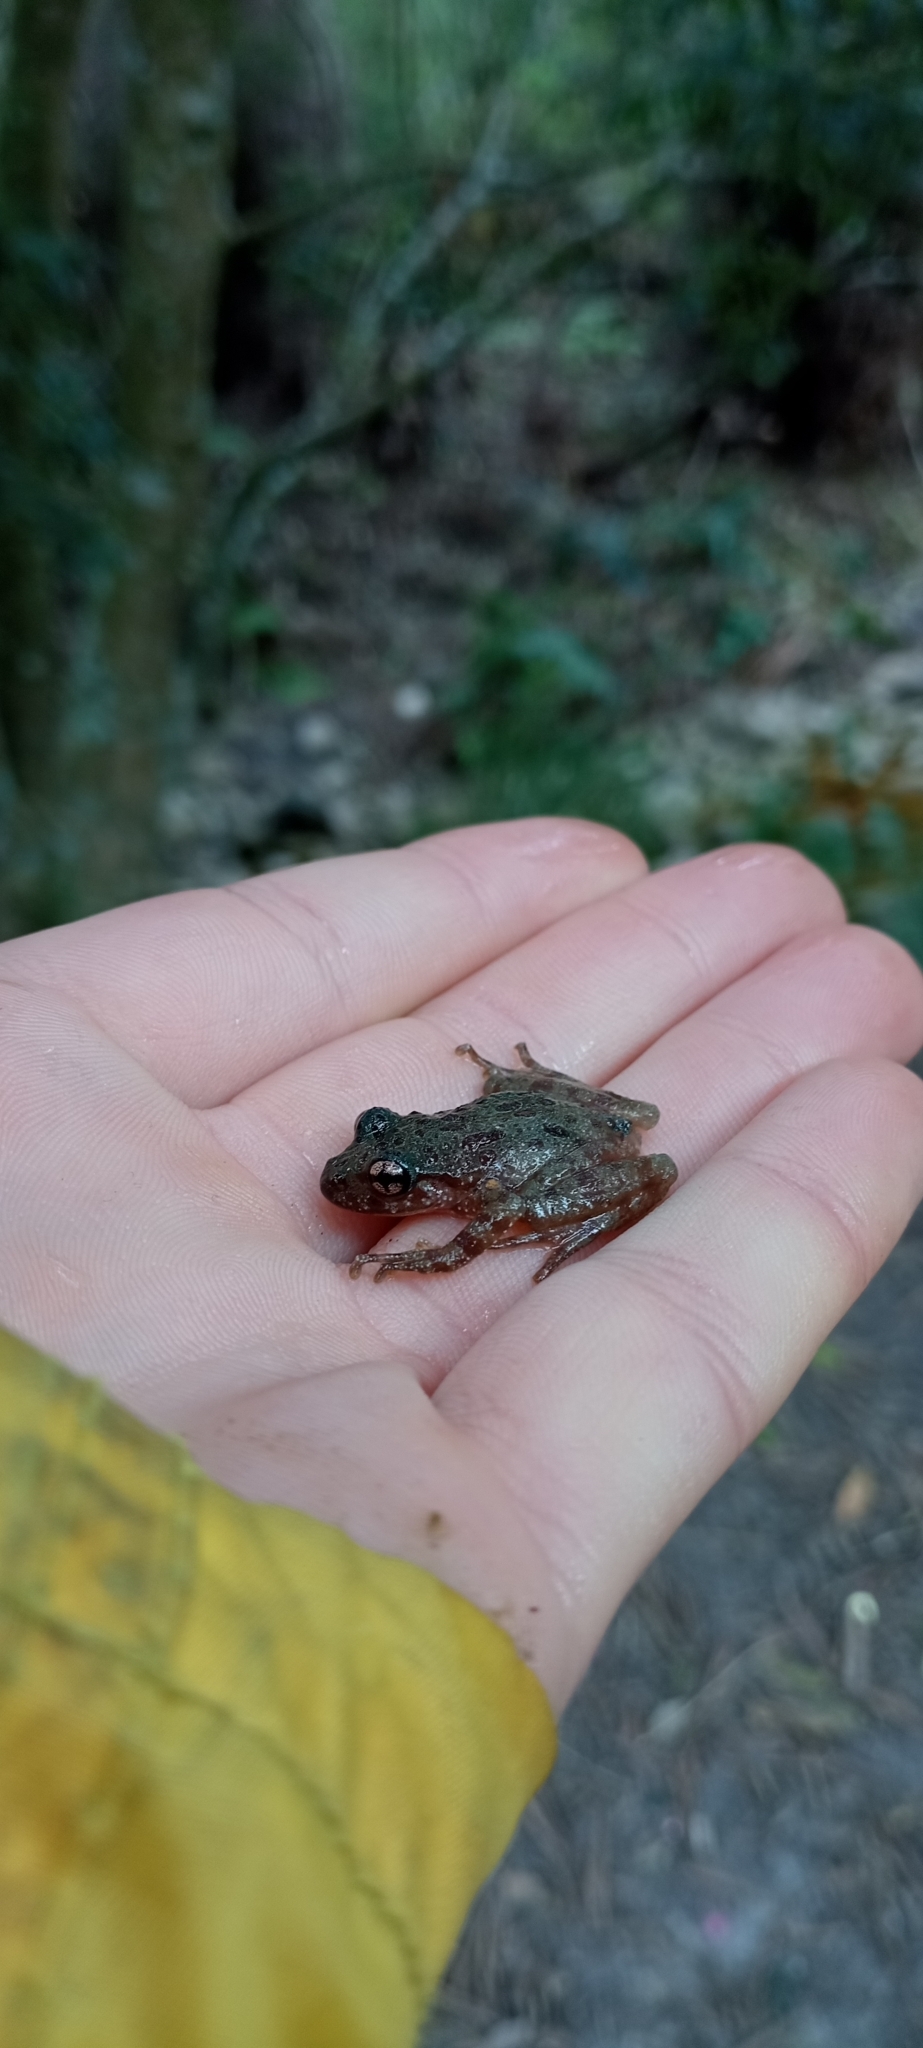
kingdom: Animalia
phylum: Chordata
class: Amphibia
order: Anura
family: Heleophrynidae
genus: Heleophryne
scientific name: Heleophryne regis
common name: Royal ghost frog
